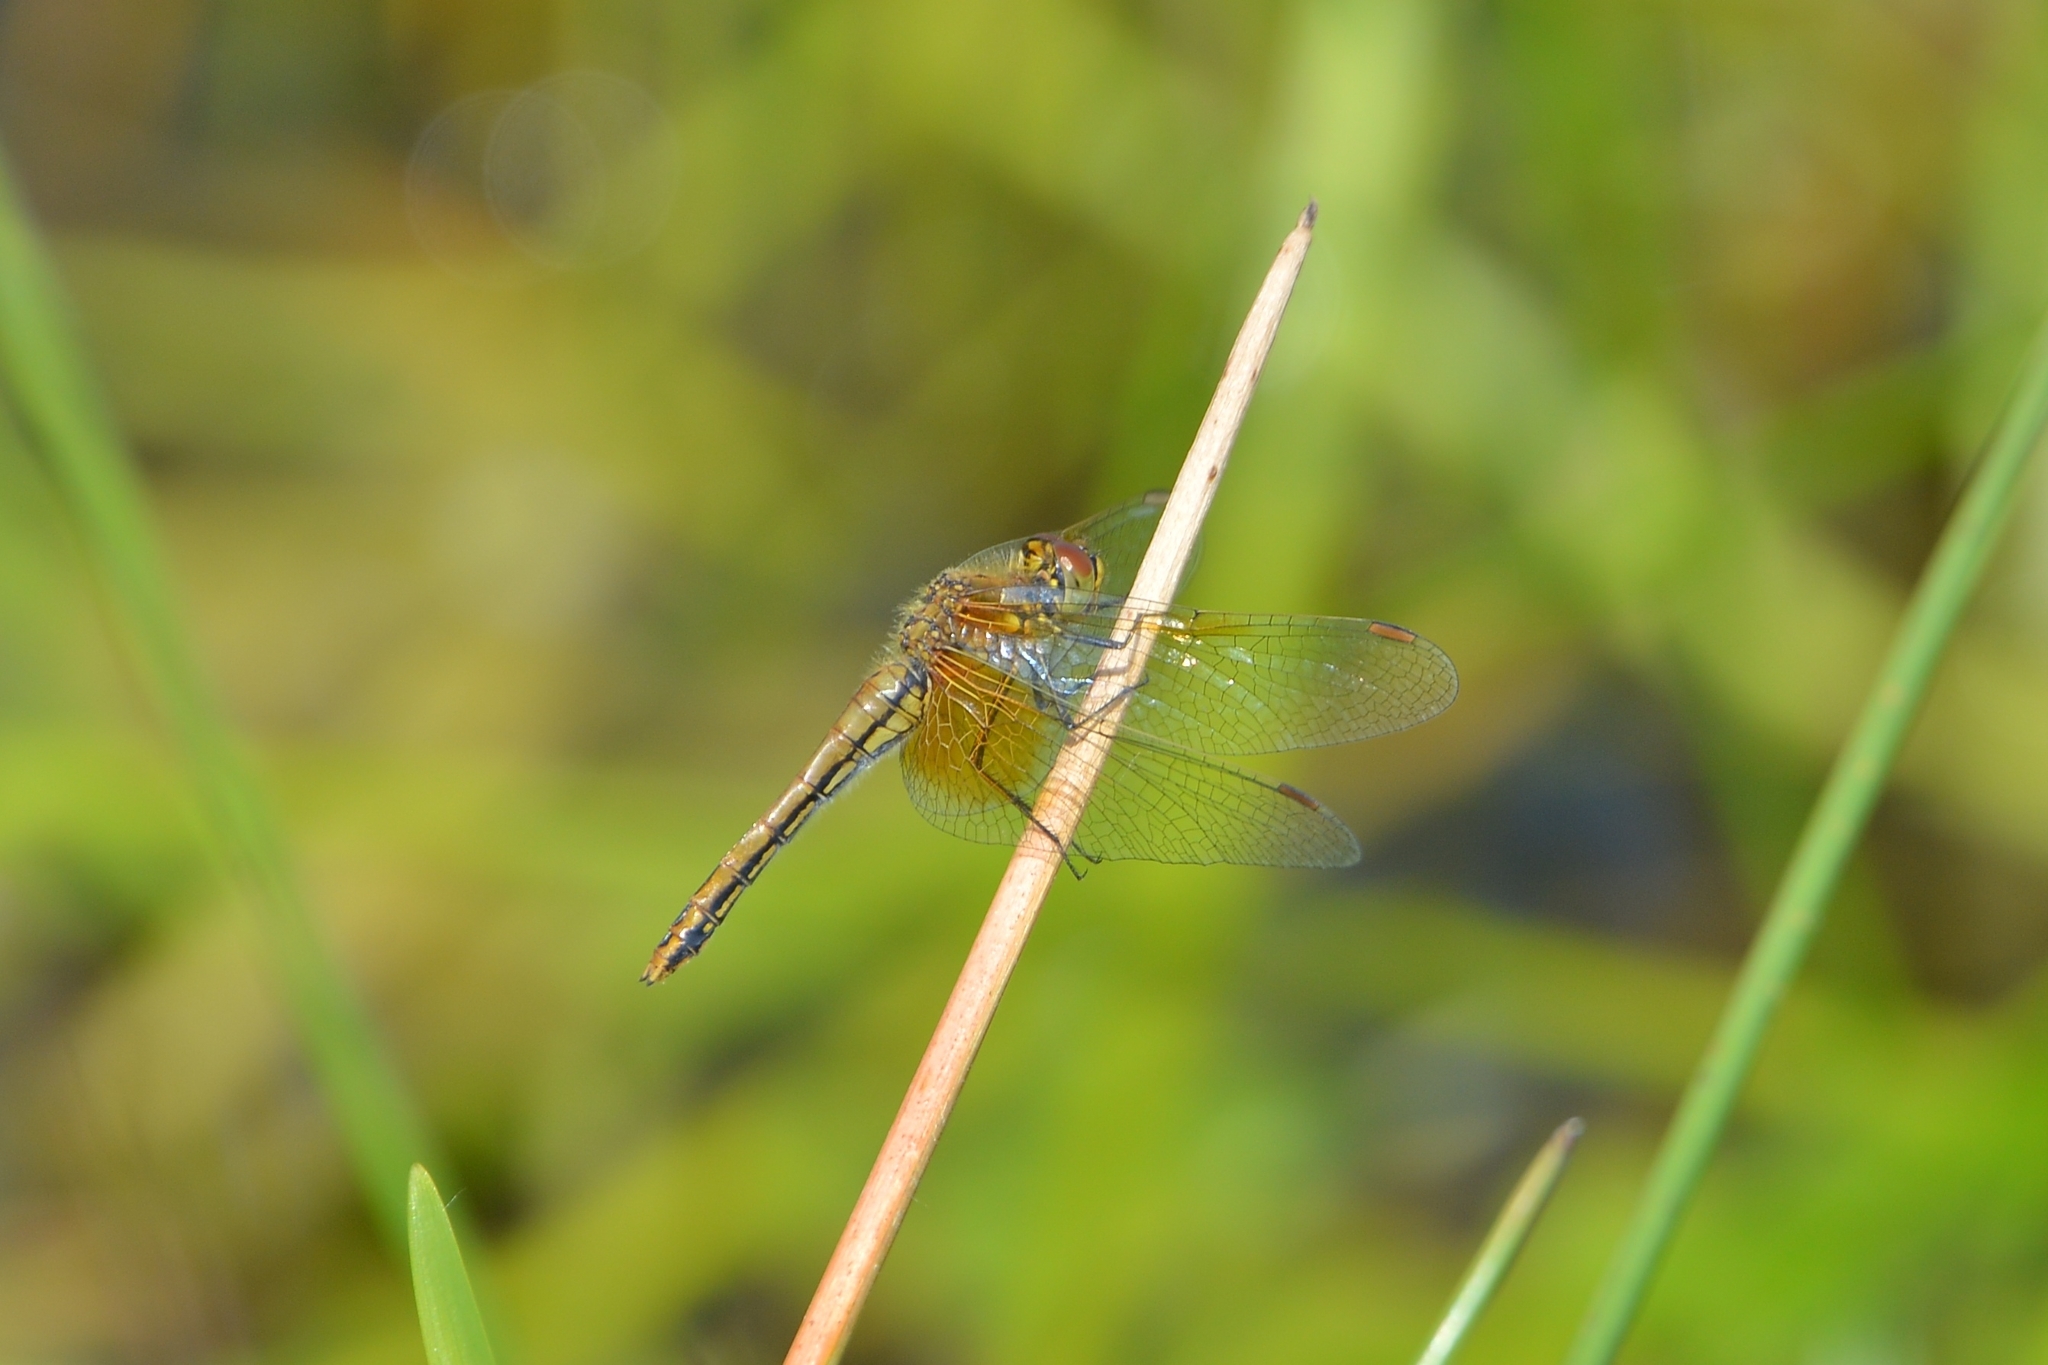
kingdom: Animalia
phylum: Arthropoda
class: Insecta
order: Odonata
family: Libellulidae
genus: Sympetrum
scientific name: Sympetrum flaveolum
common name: Yellow-winged darter
